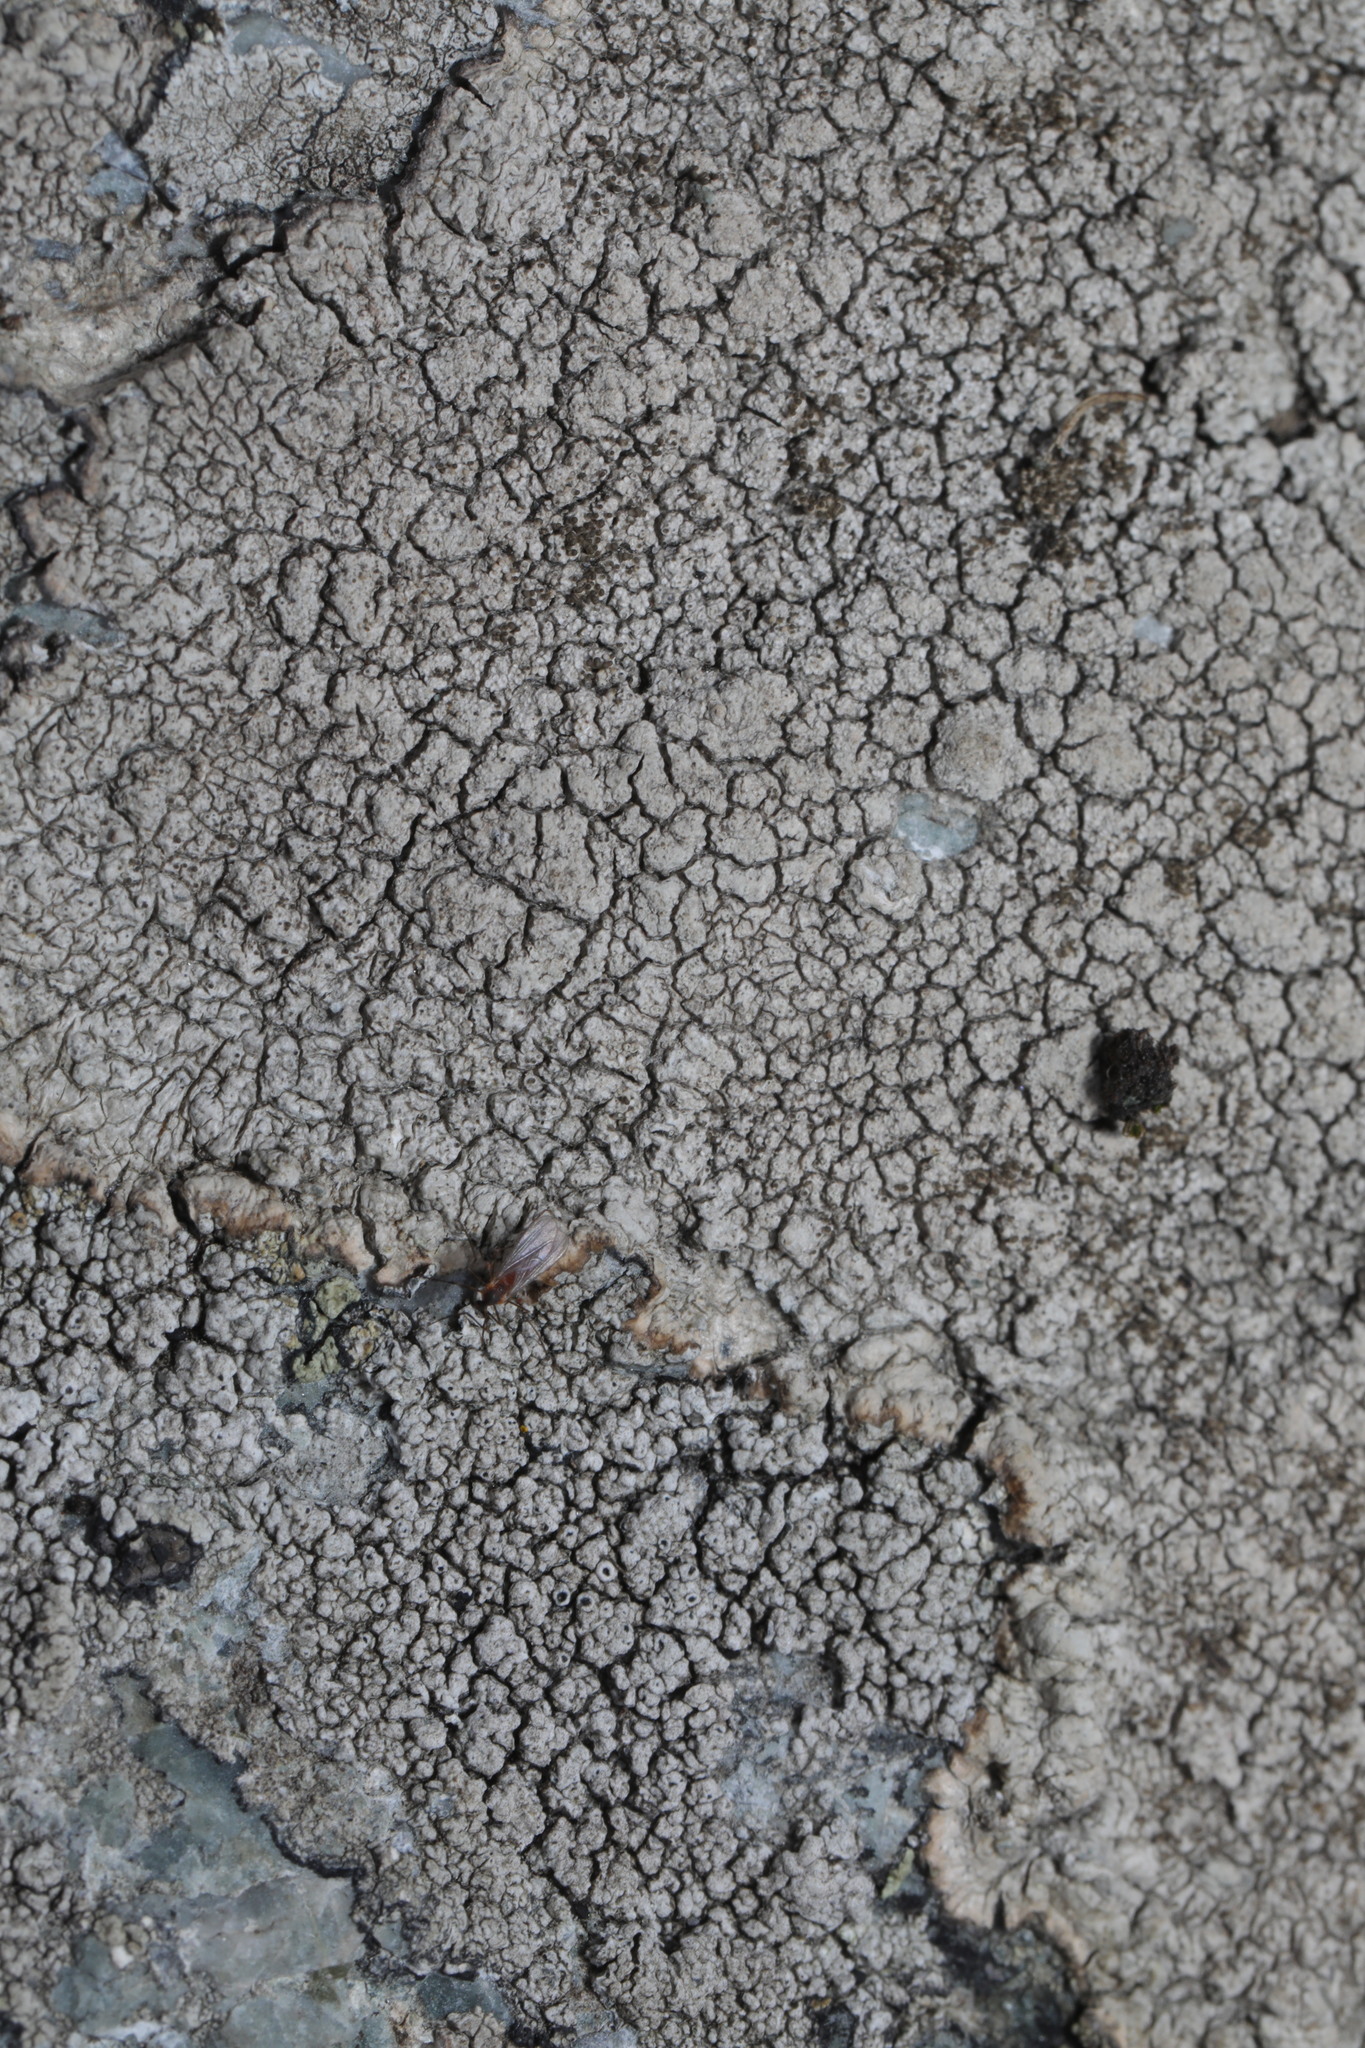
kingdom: Fungi
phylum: Ascomycota
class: Lecanoromycetes
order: Pertusariales
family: Pertusariaceae
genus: Pertusaria
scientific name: Pertusaria pseudocorallina
